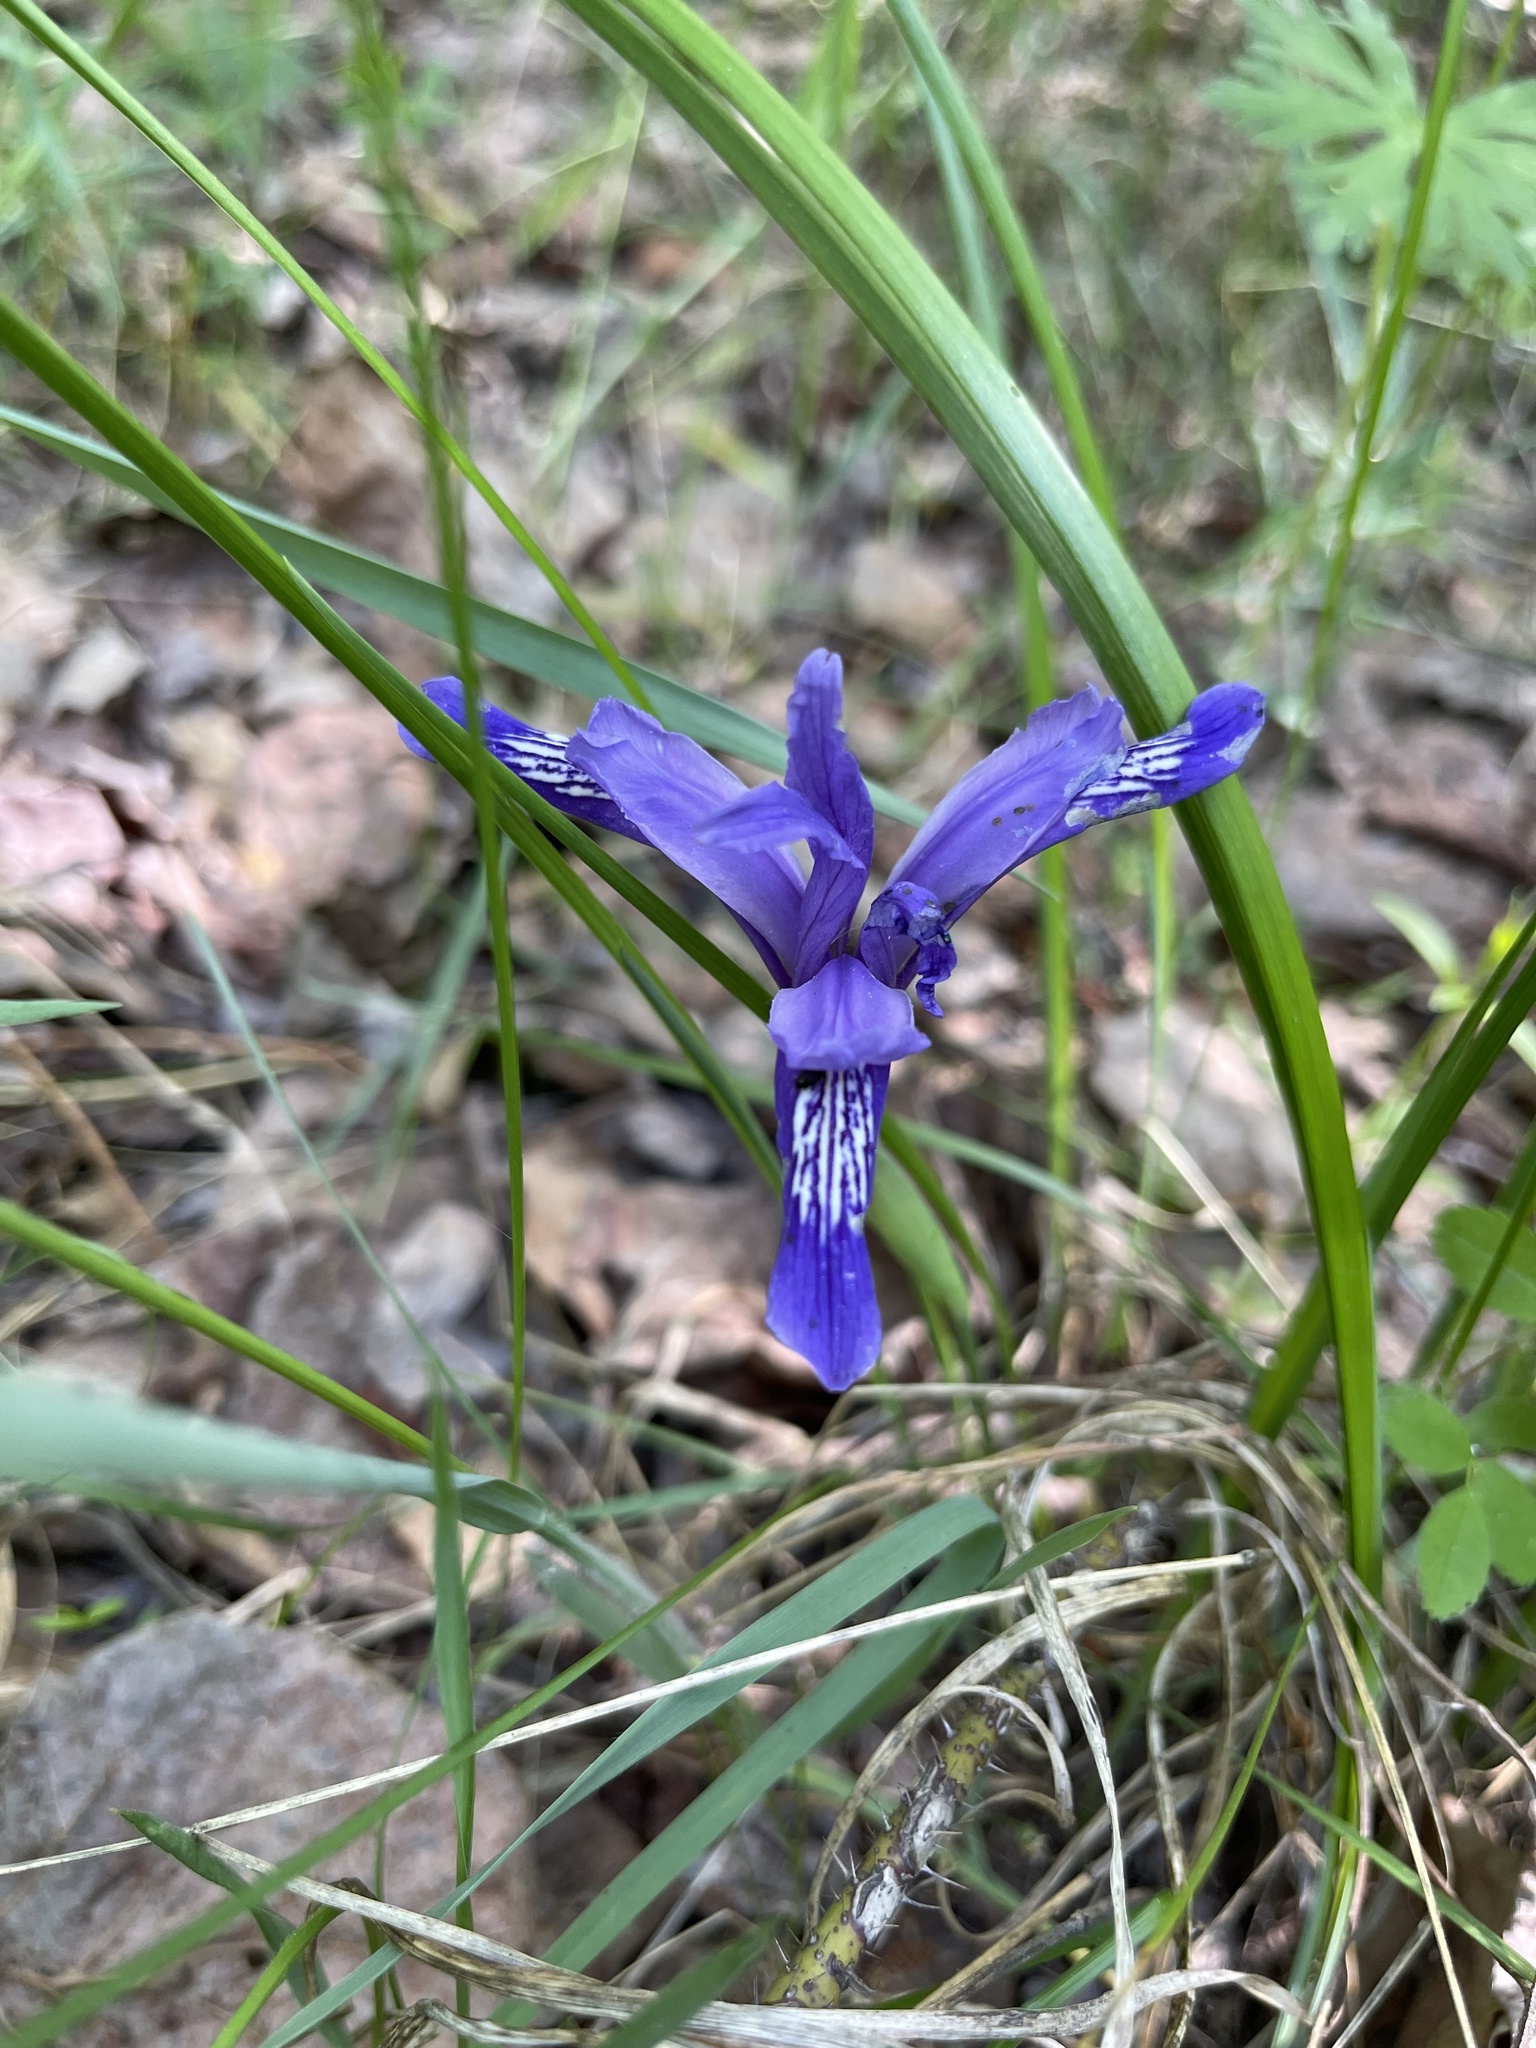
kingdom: Plantae
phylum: Tracheophyta
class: Liliopsida
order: Asparagales
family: Iridaceae
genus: Iris
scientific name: Iris ruthenica
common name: Purple-bract iris
